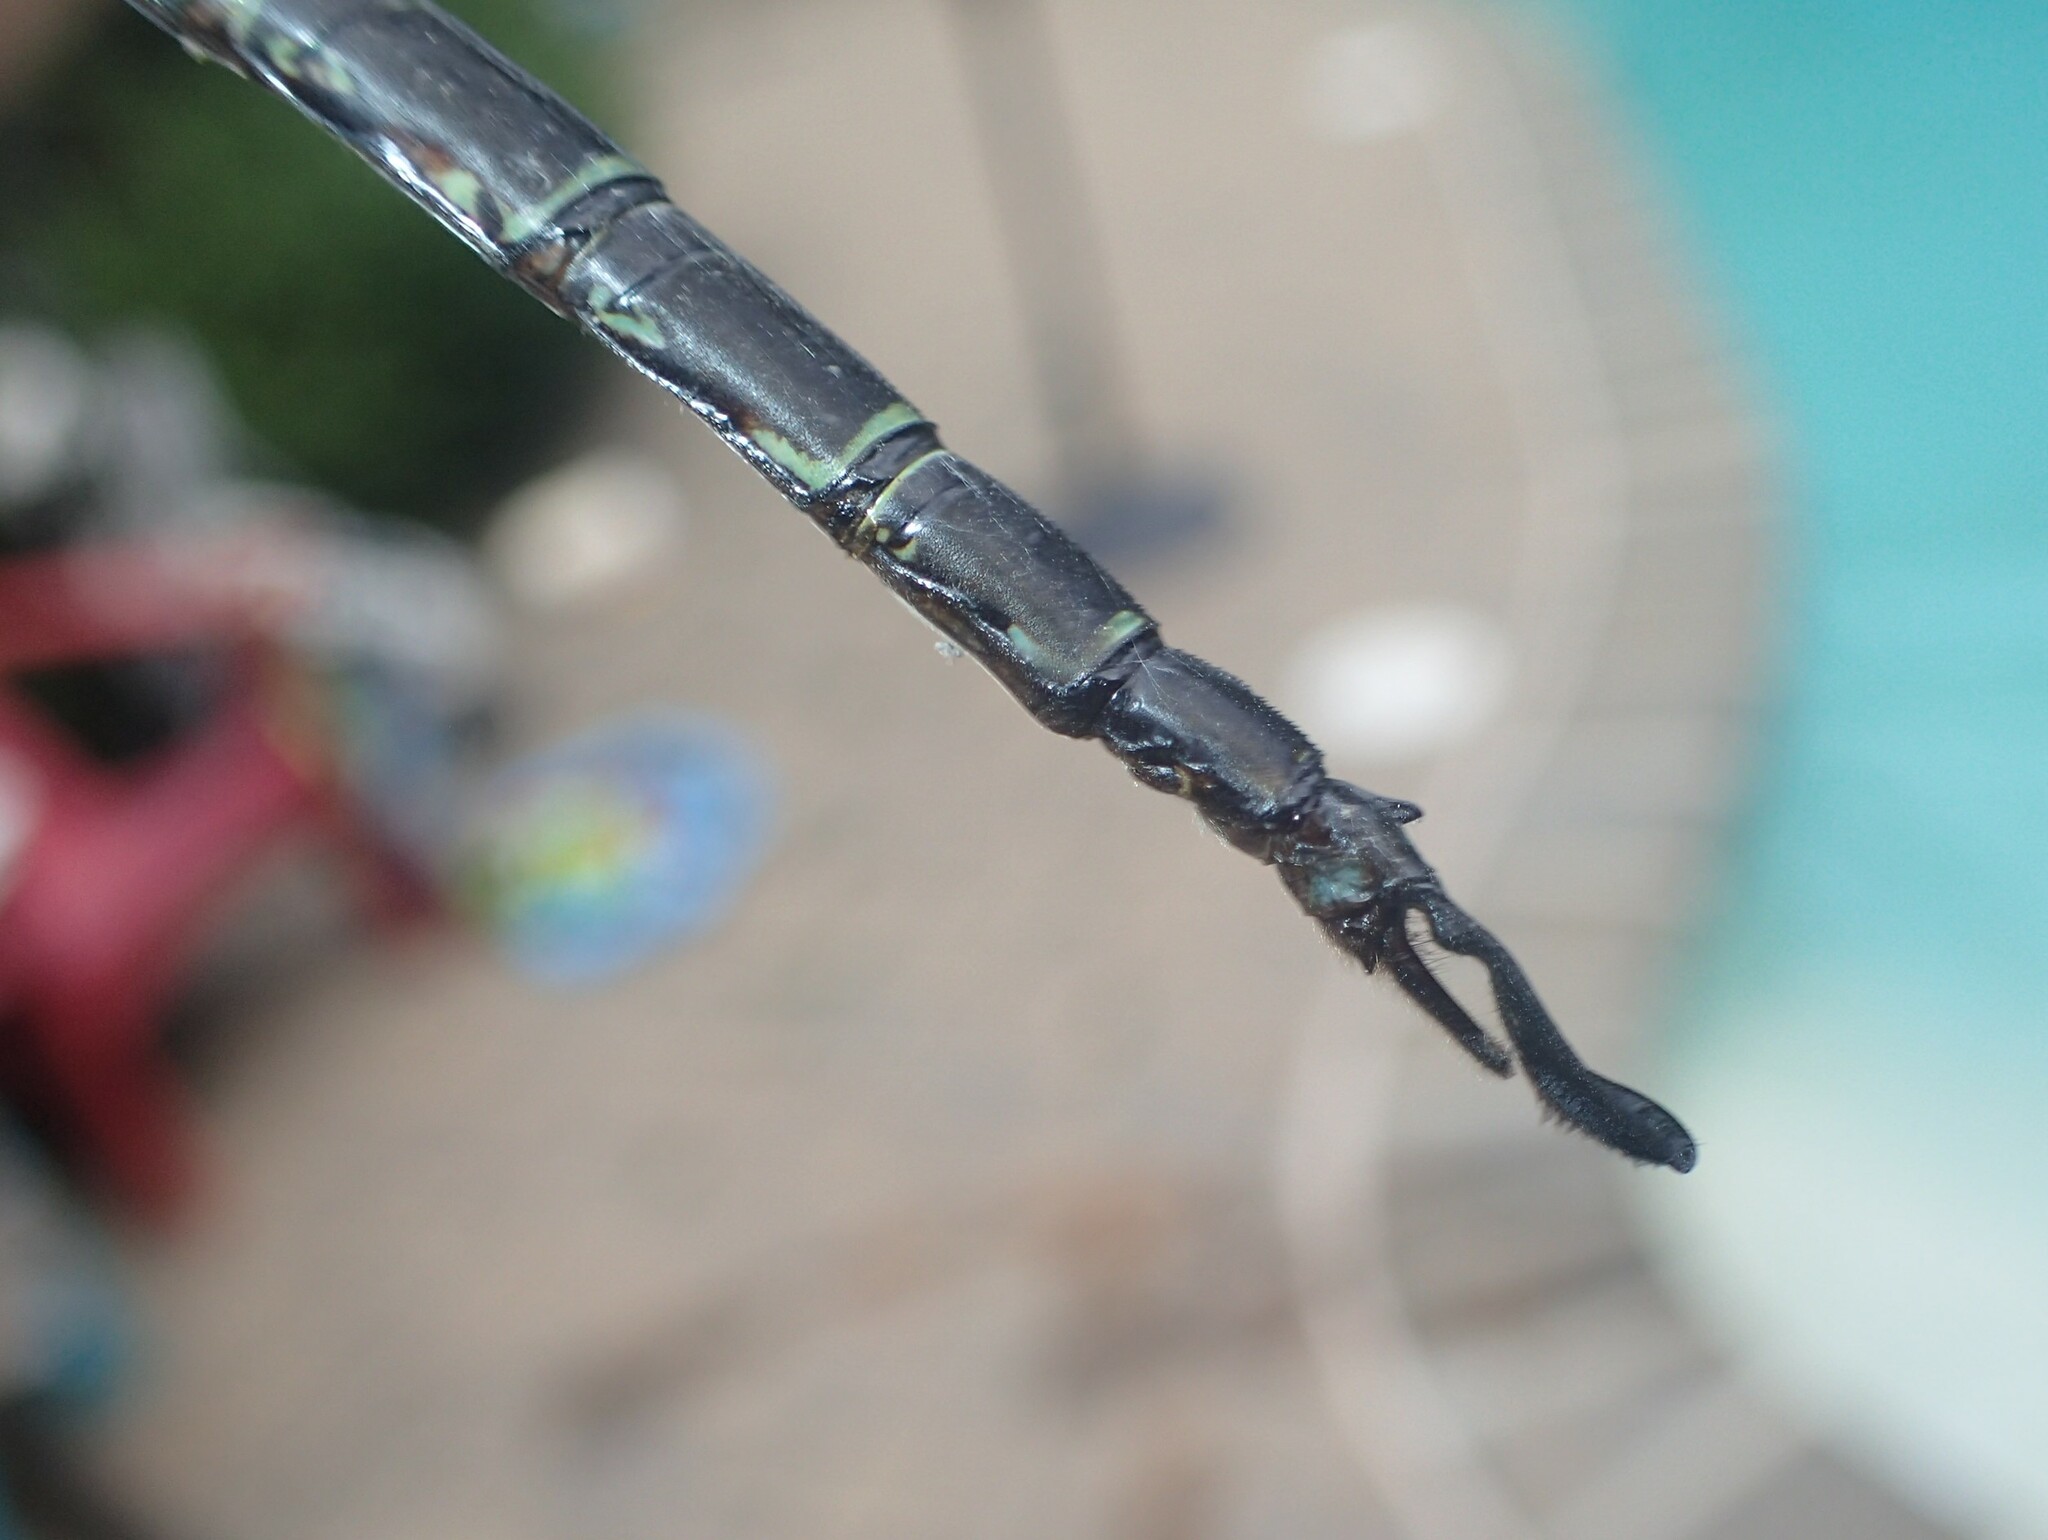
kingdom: Animalia
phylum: Arthropoda
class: Insecta
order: Odonata
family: Aeshnidae
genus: Epiaeschna
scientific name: Epiaeschna heros
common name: Swamp darner
